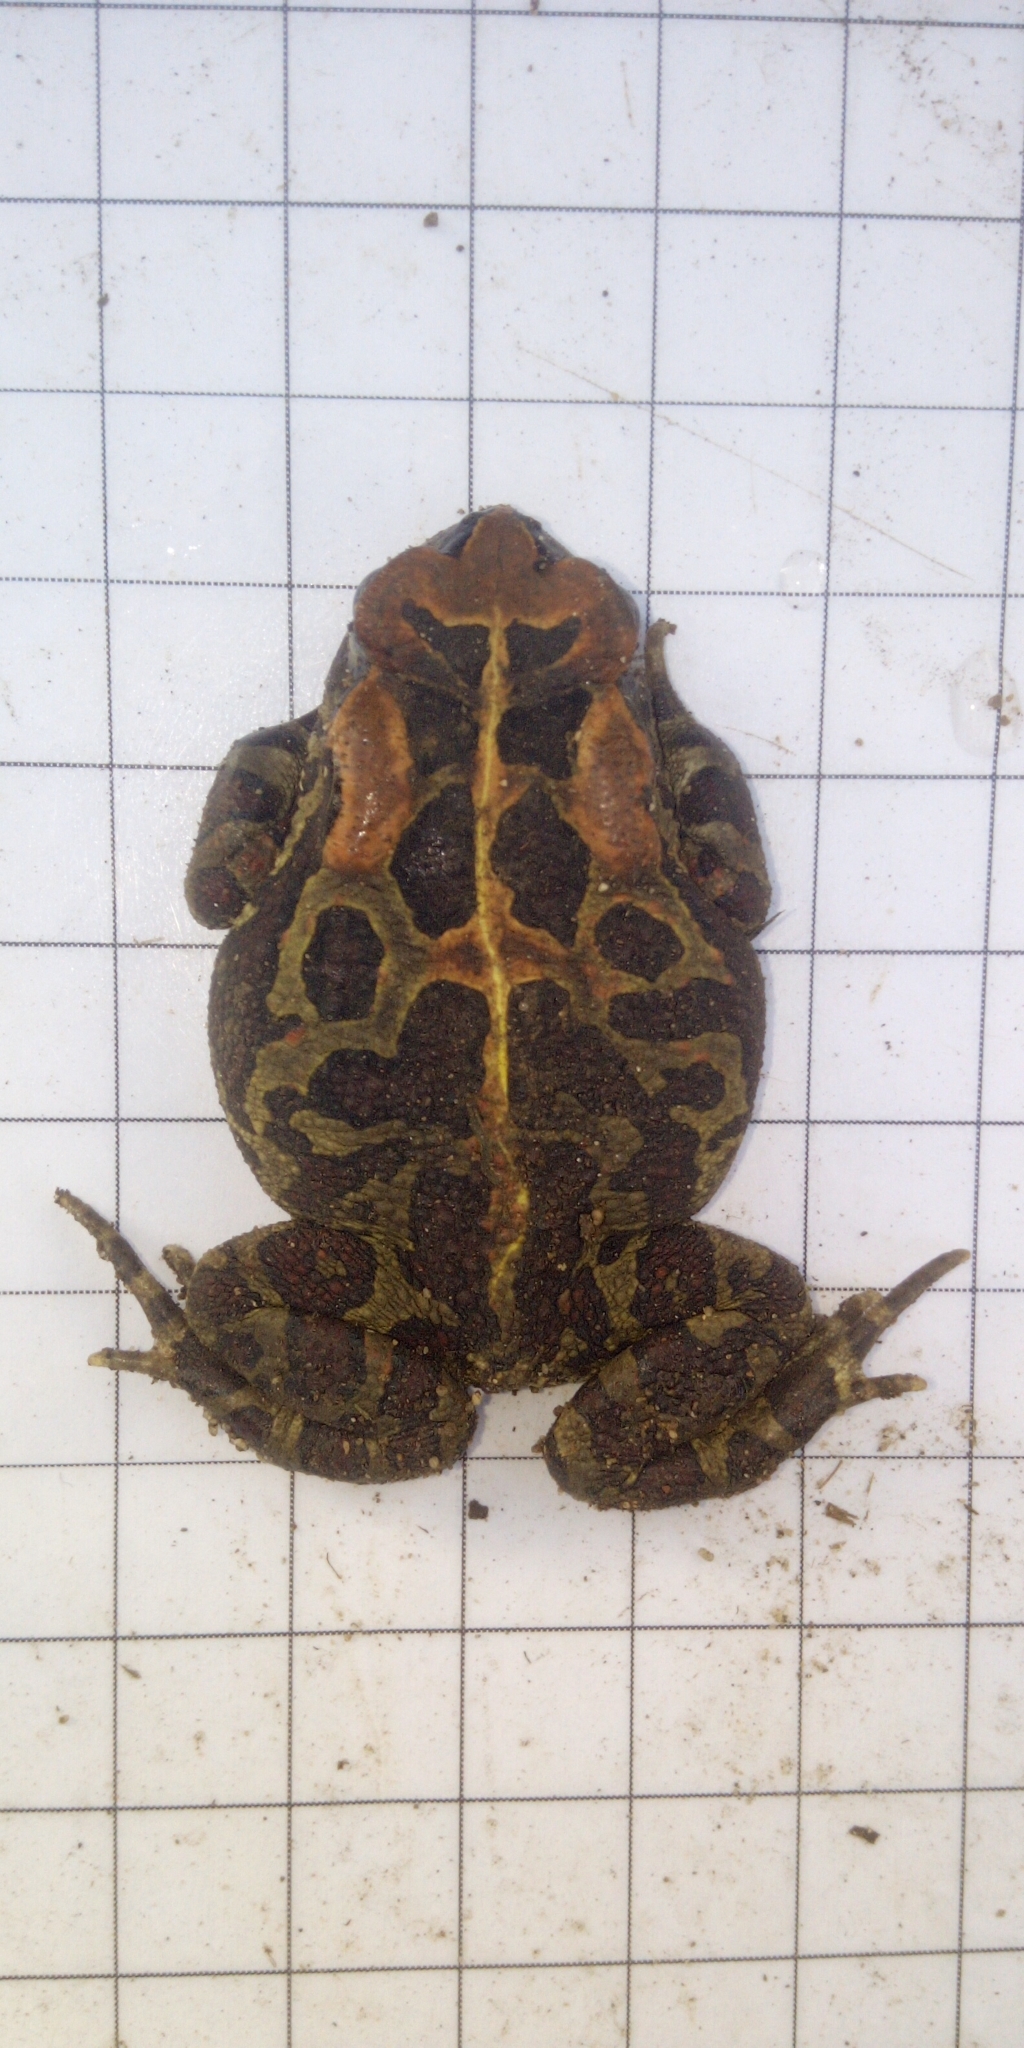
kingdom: Animalia
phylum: Chordata
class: Amphibia
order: Anura
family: Bufonidae
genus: Sclerophrys
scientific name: Sclerophrys pantherina
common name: Panther toad
